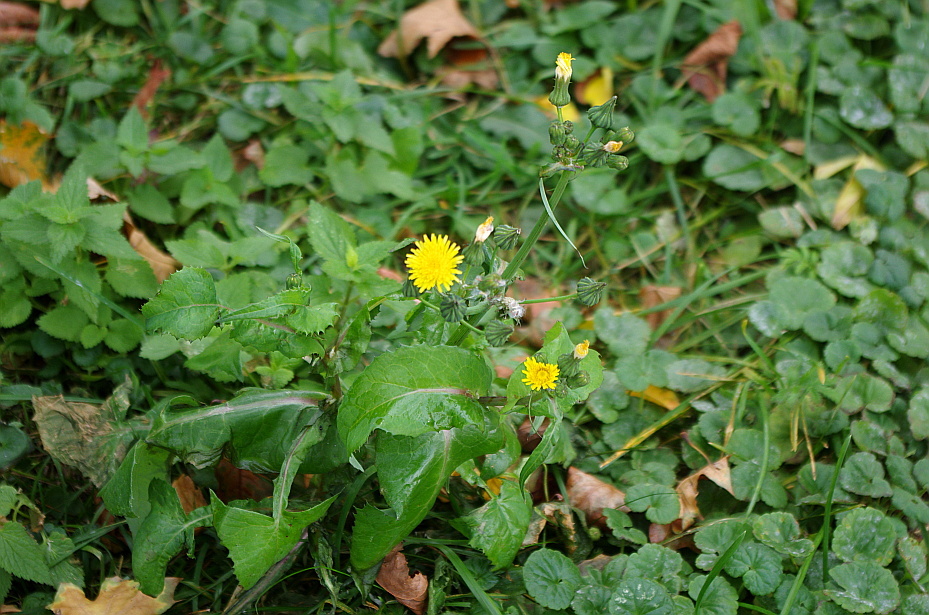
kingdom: Plantae
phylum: Tracheophyta
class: Magnoliopsida
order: Asterales
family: Asteraceae
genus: Sonchus
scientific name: Sonchus oleraceus
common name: Common sowthistle
